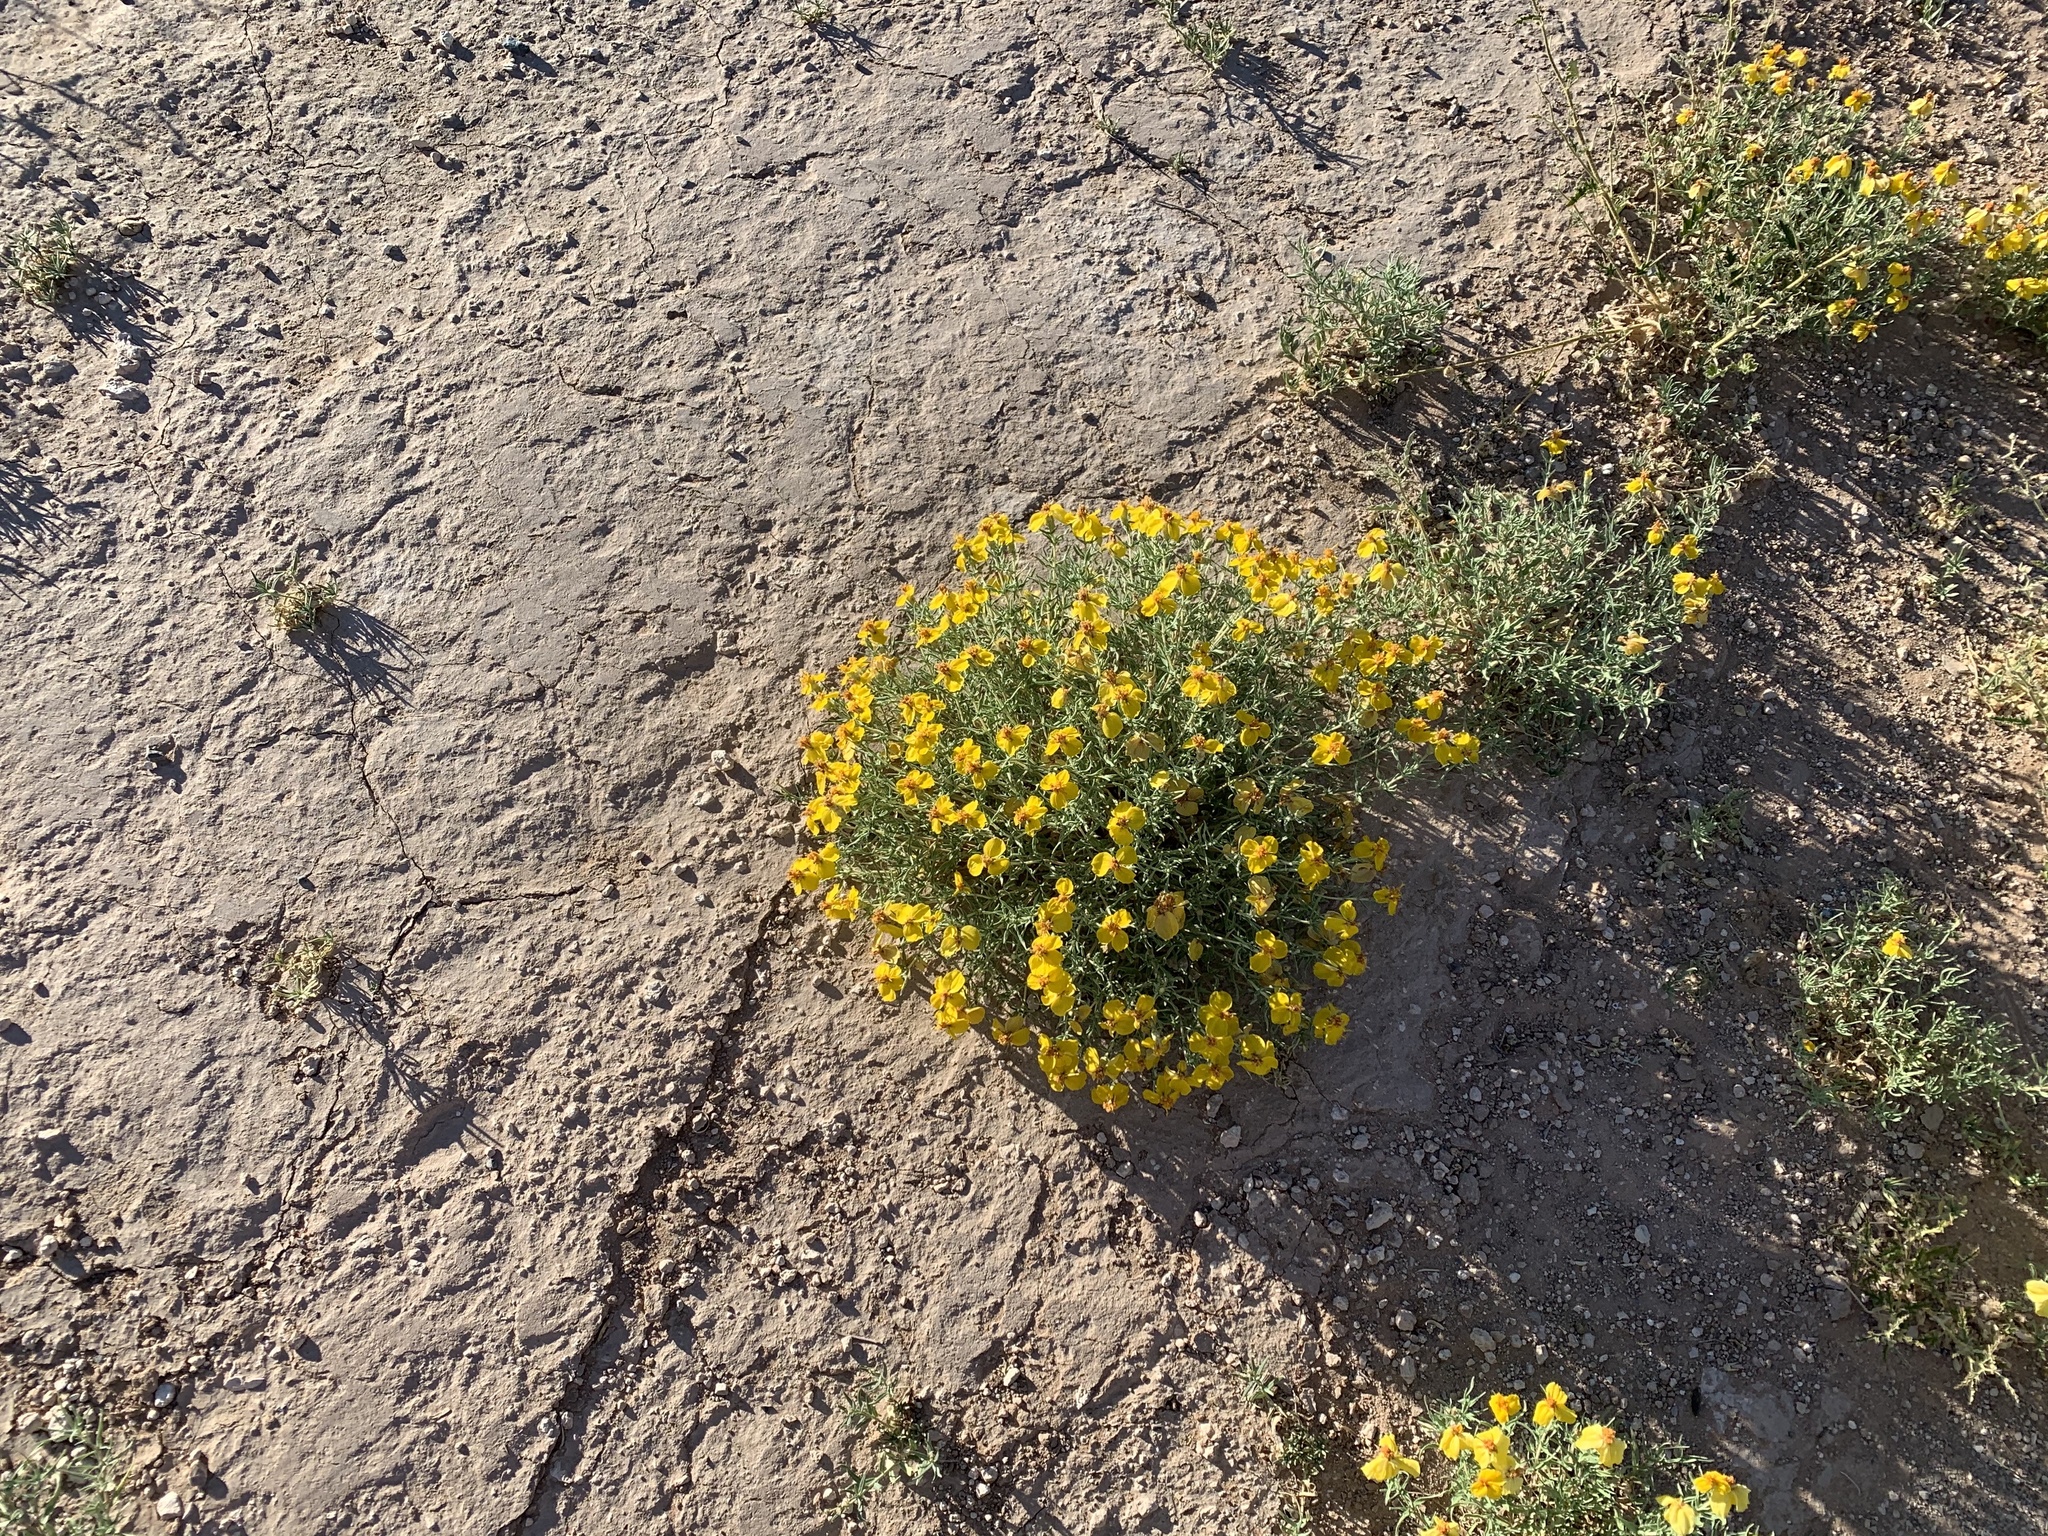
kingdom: Plantae
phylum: Tracheophyta
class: Magnoliopsida
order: Asterales
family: Asteraceae
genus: Zinnia
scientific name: Zinnia grandiflora
